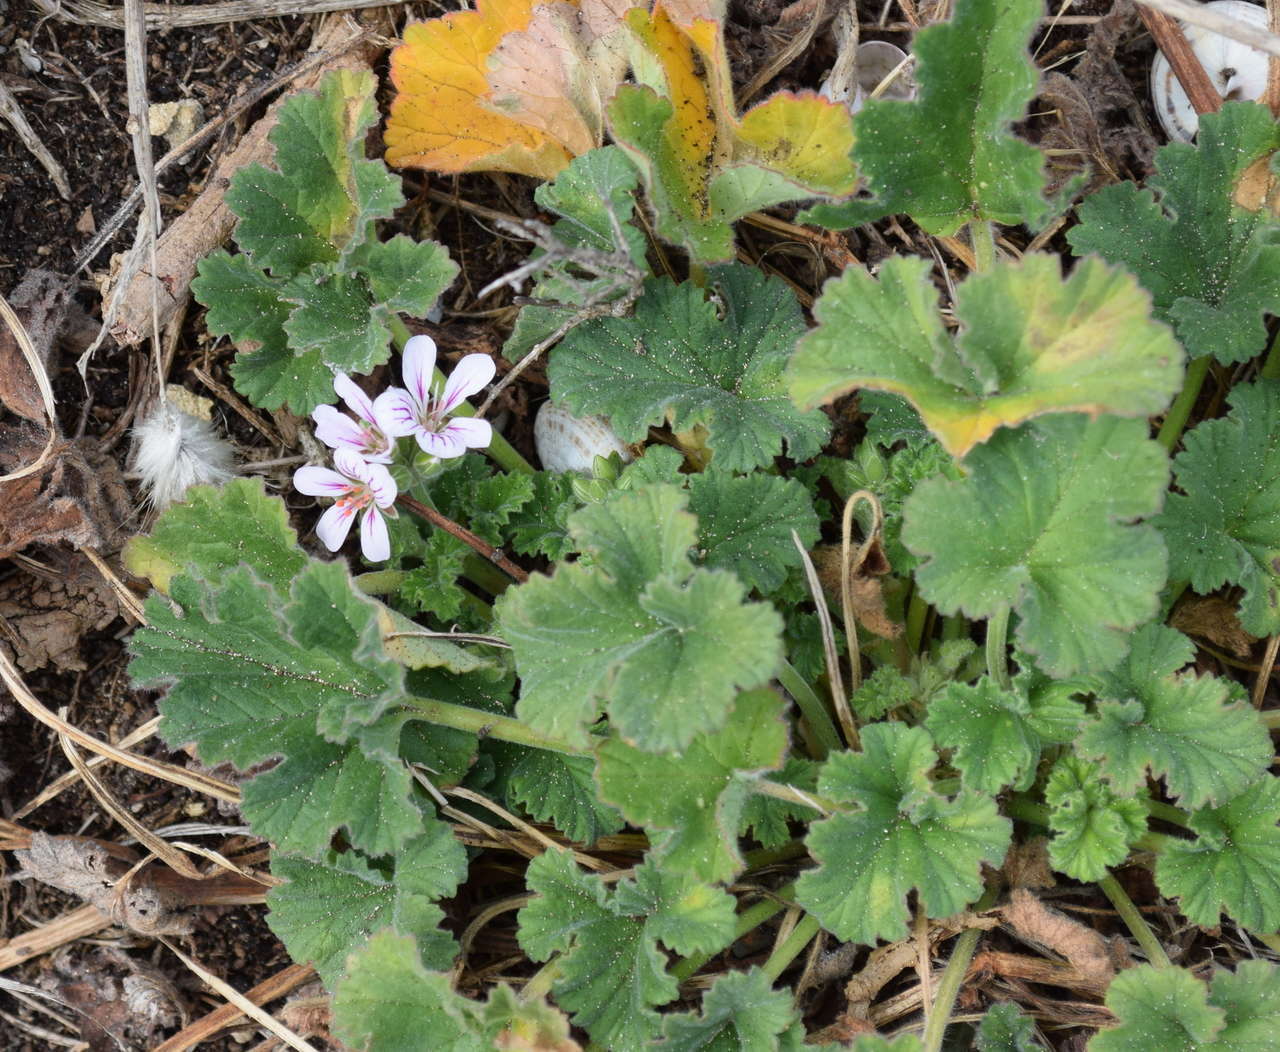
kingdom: Plantae
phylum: Tracheophyta
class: Magnoliopsida
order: Geraniales
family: Geraniaceae
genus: Pelargonium
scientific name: Pelargonium australe
